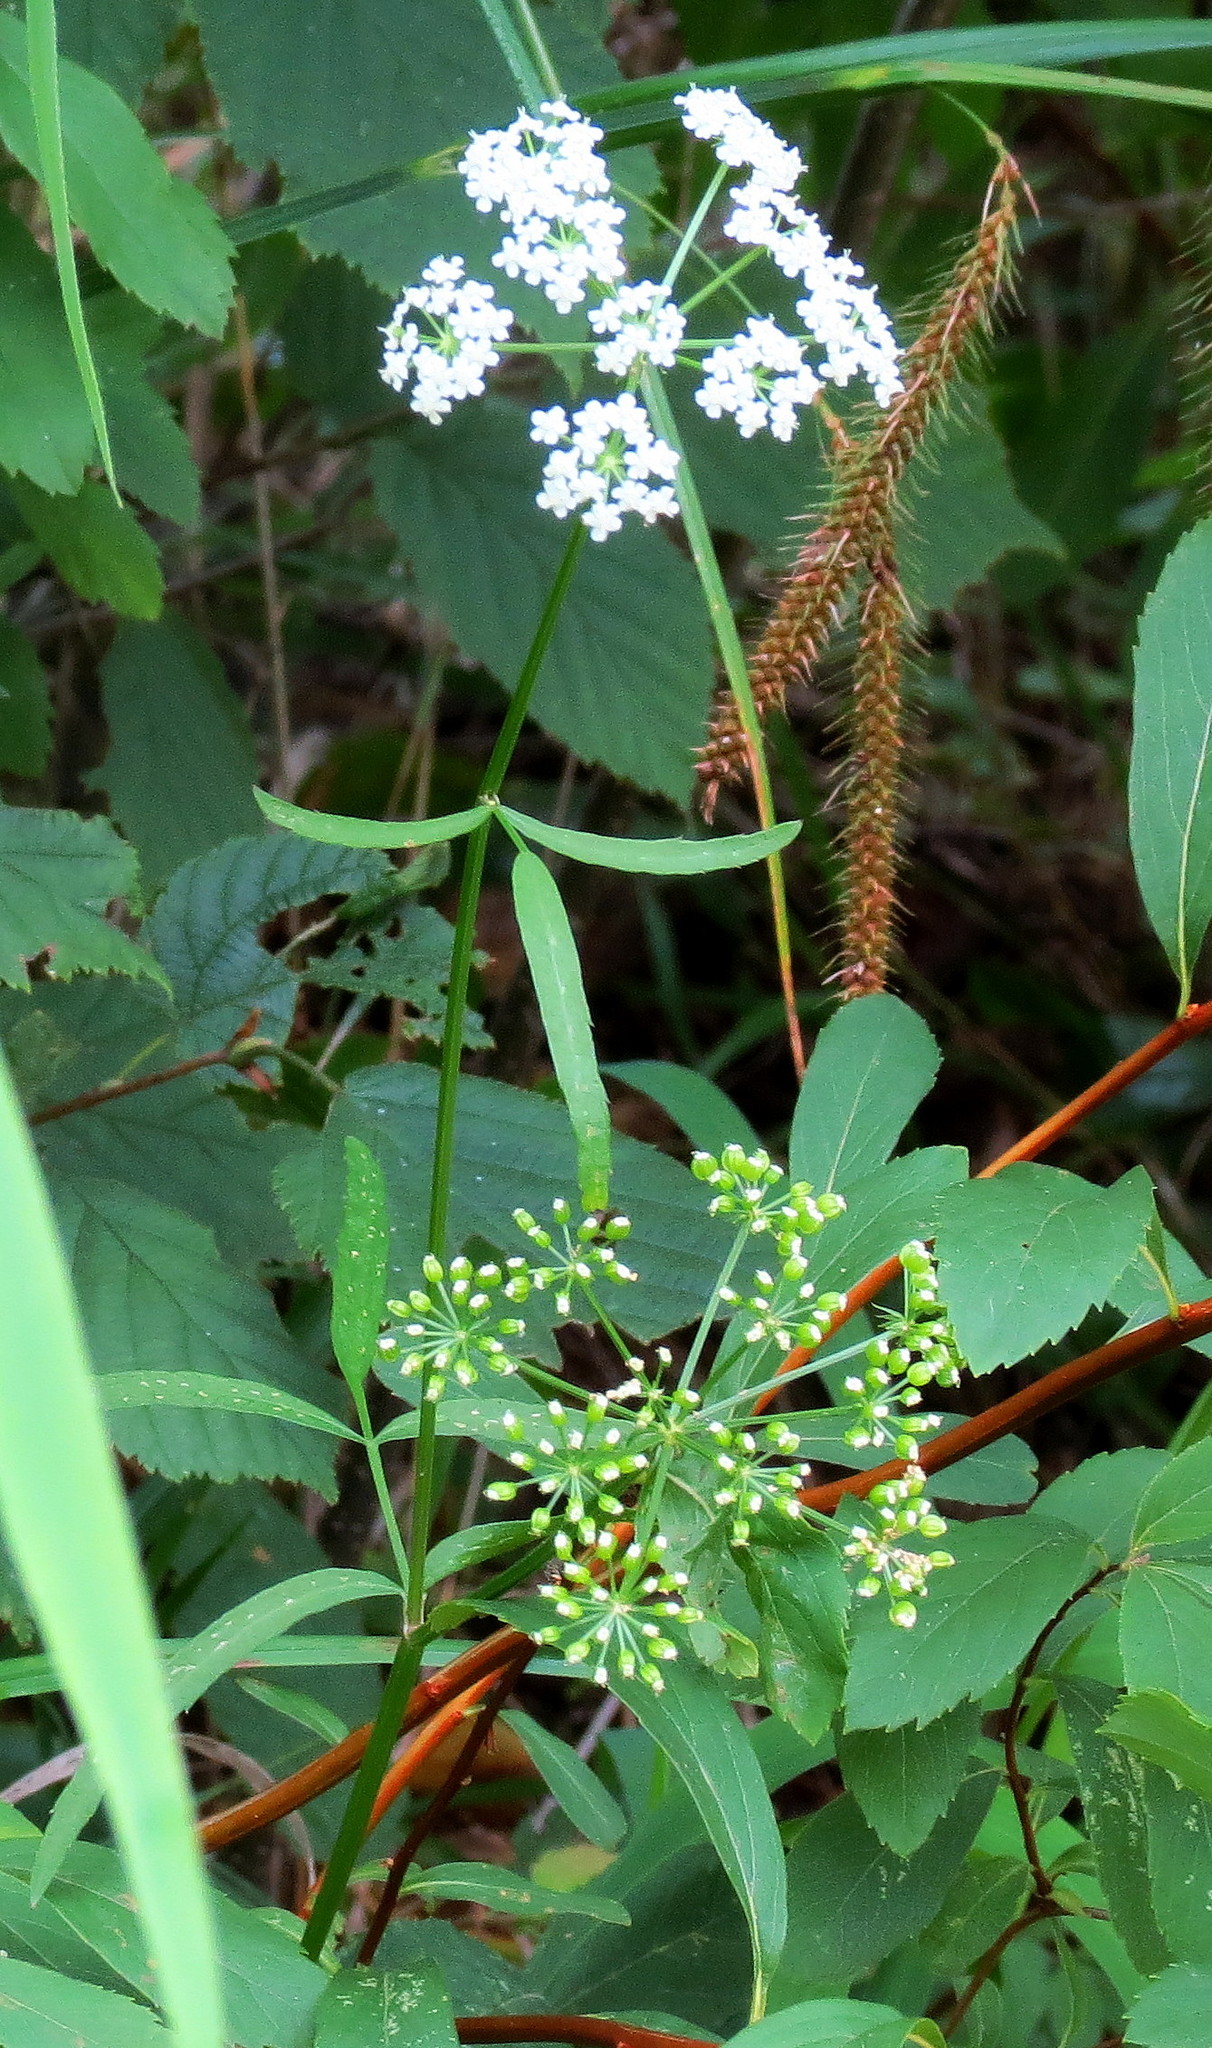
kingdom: Plantae
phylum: Tracheophyta
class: Magnoliopsida
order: Apiales
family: Apiaceae
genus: Sium
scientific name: Sium suave
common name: Hemlock water-parsnip
